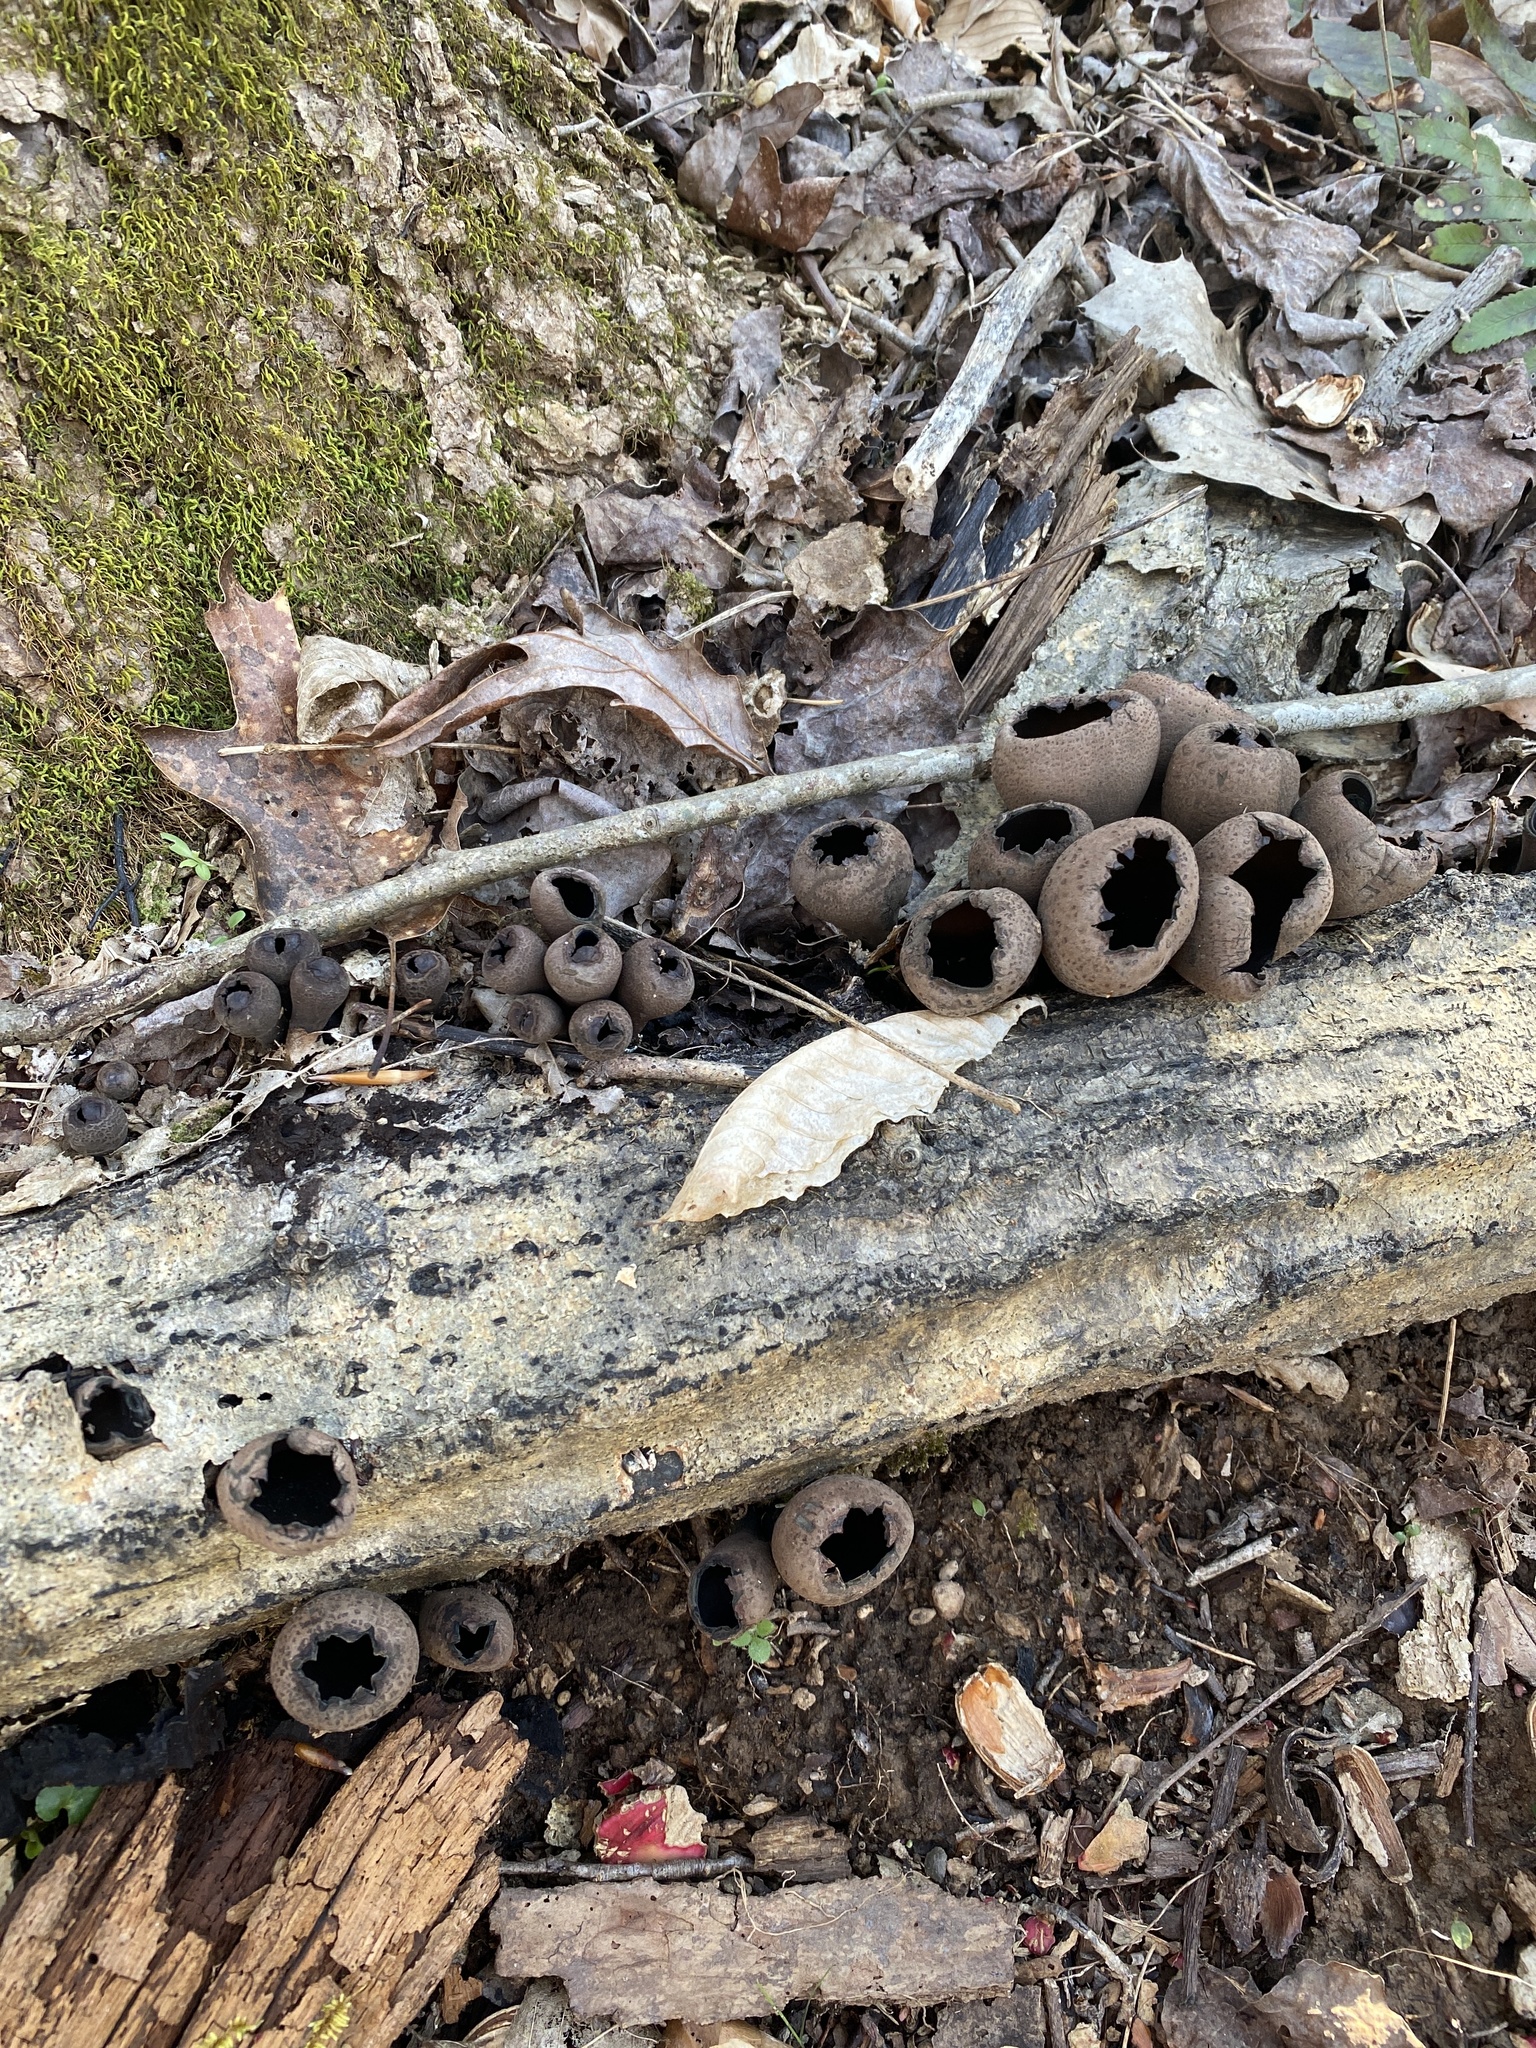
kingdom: Fungi
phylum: Ascomycota
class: Pezizomycetes
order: Pezizales
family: Sarcosomataceae
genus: Urnula
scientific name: Urnula craterium
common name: Devil's urn
